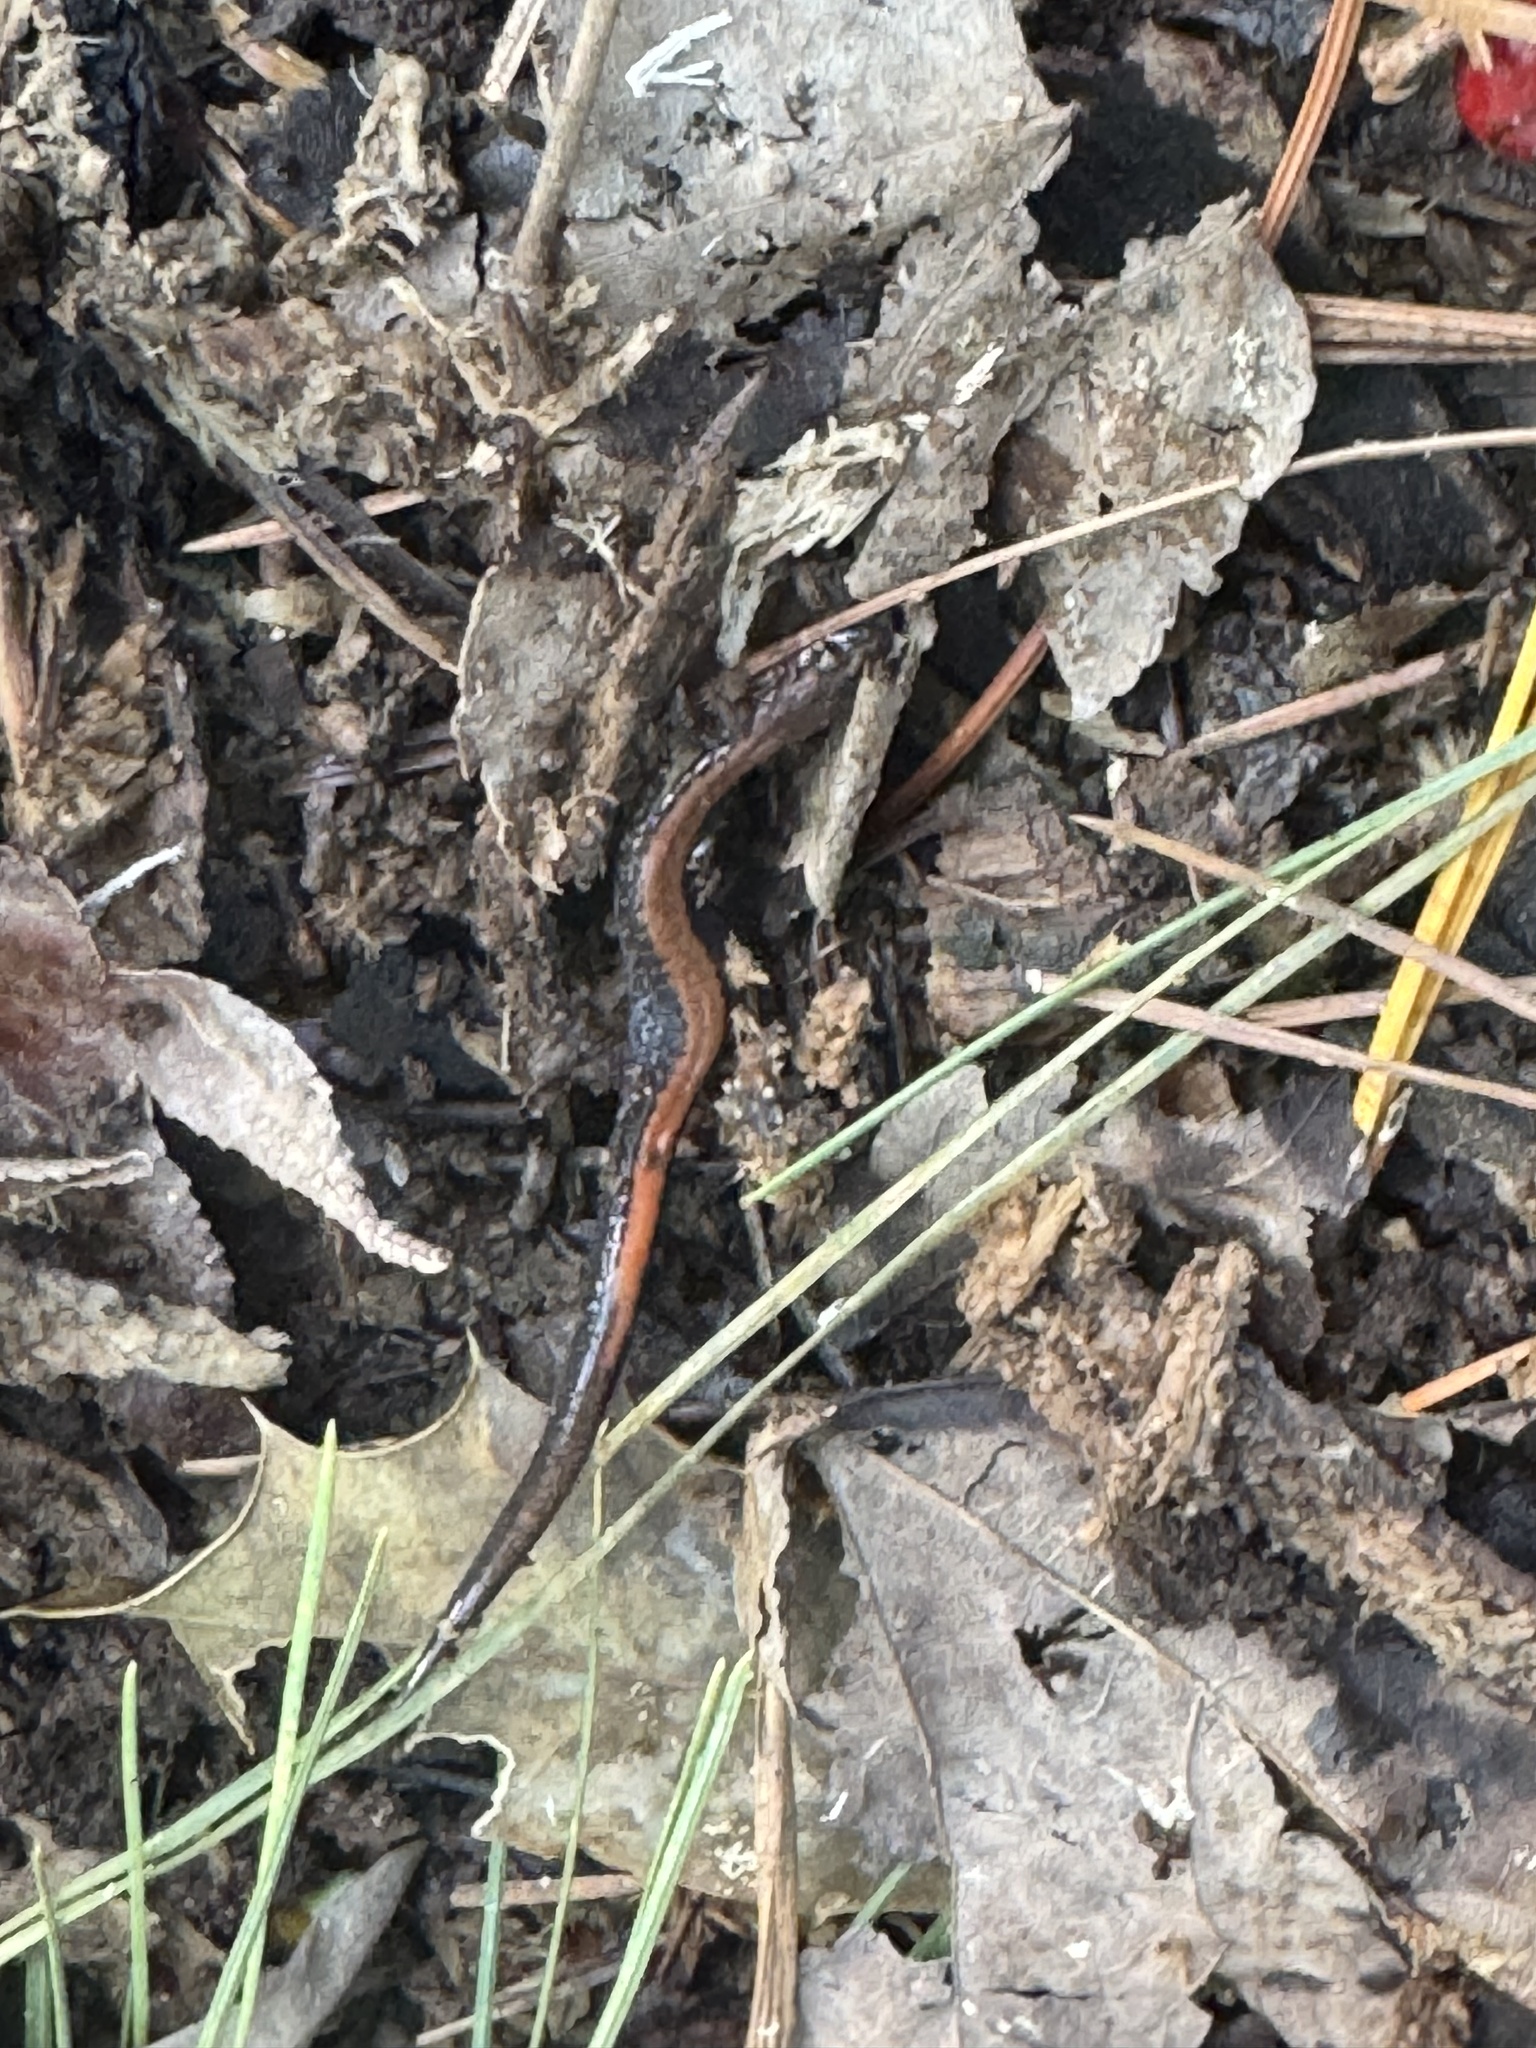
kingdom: Animalia
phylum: Chordata
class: Amphibia
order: Caudata
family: Plethodontidae
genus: Plethodon
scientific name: Plethodon cinereus
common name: Redback salamander
